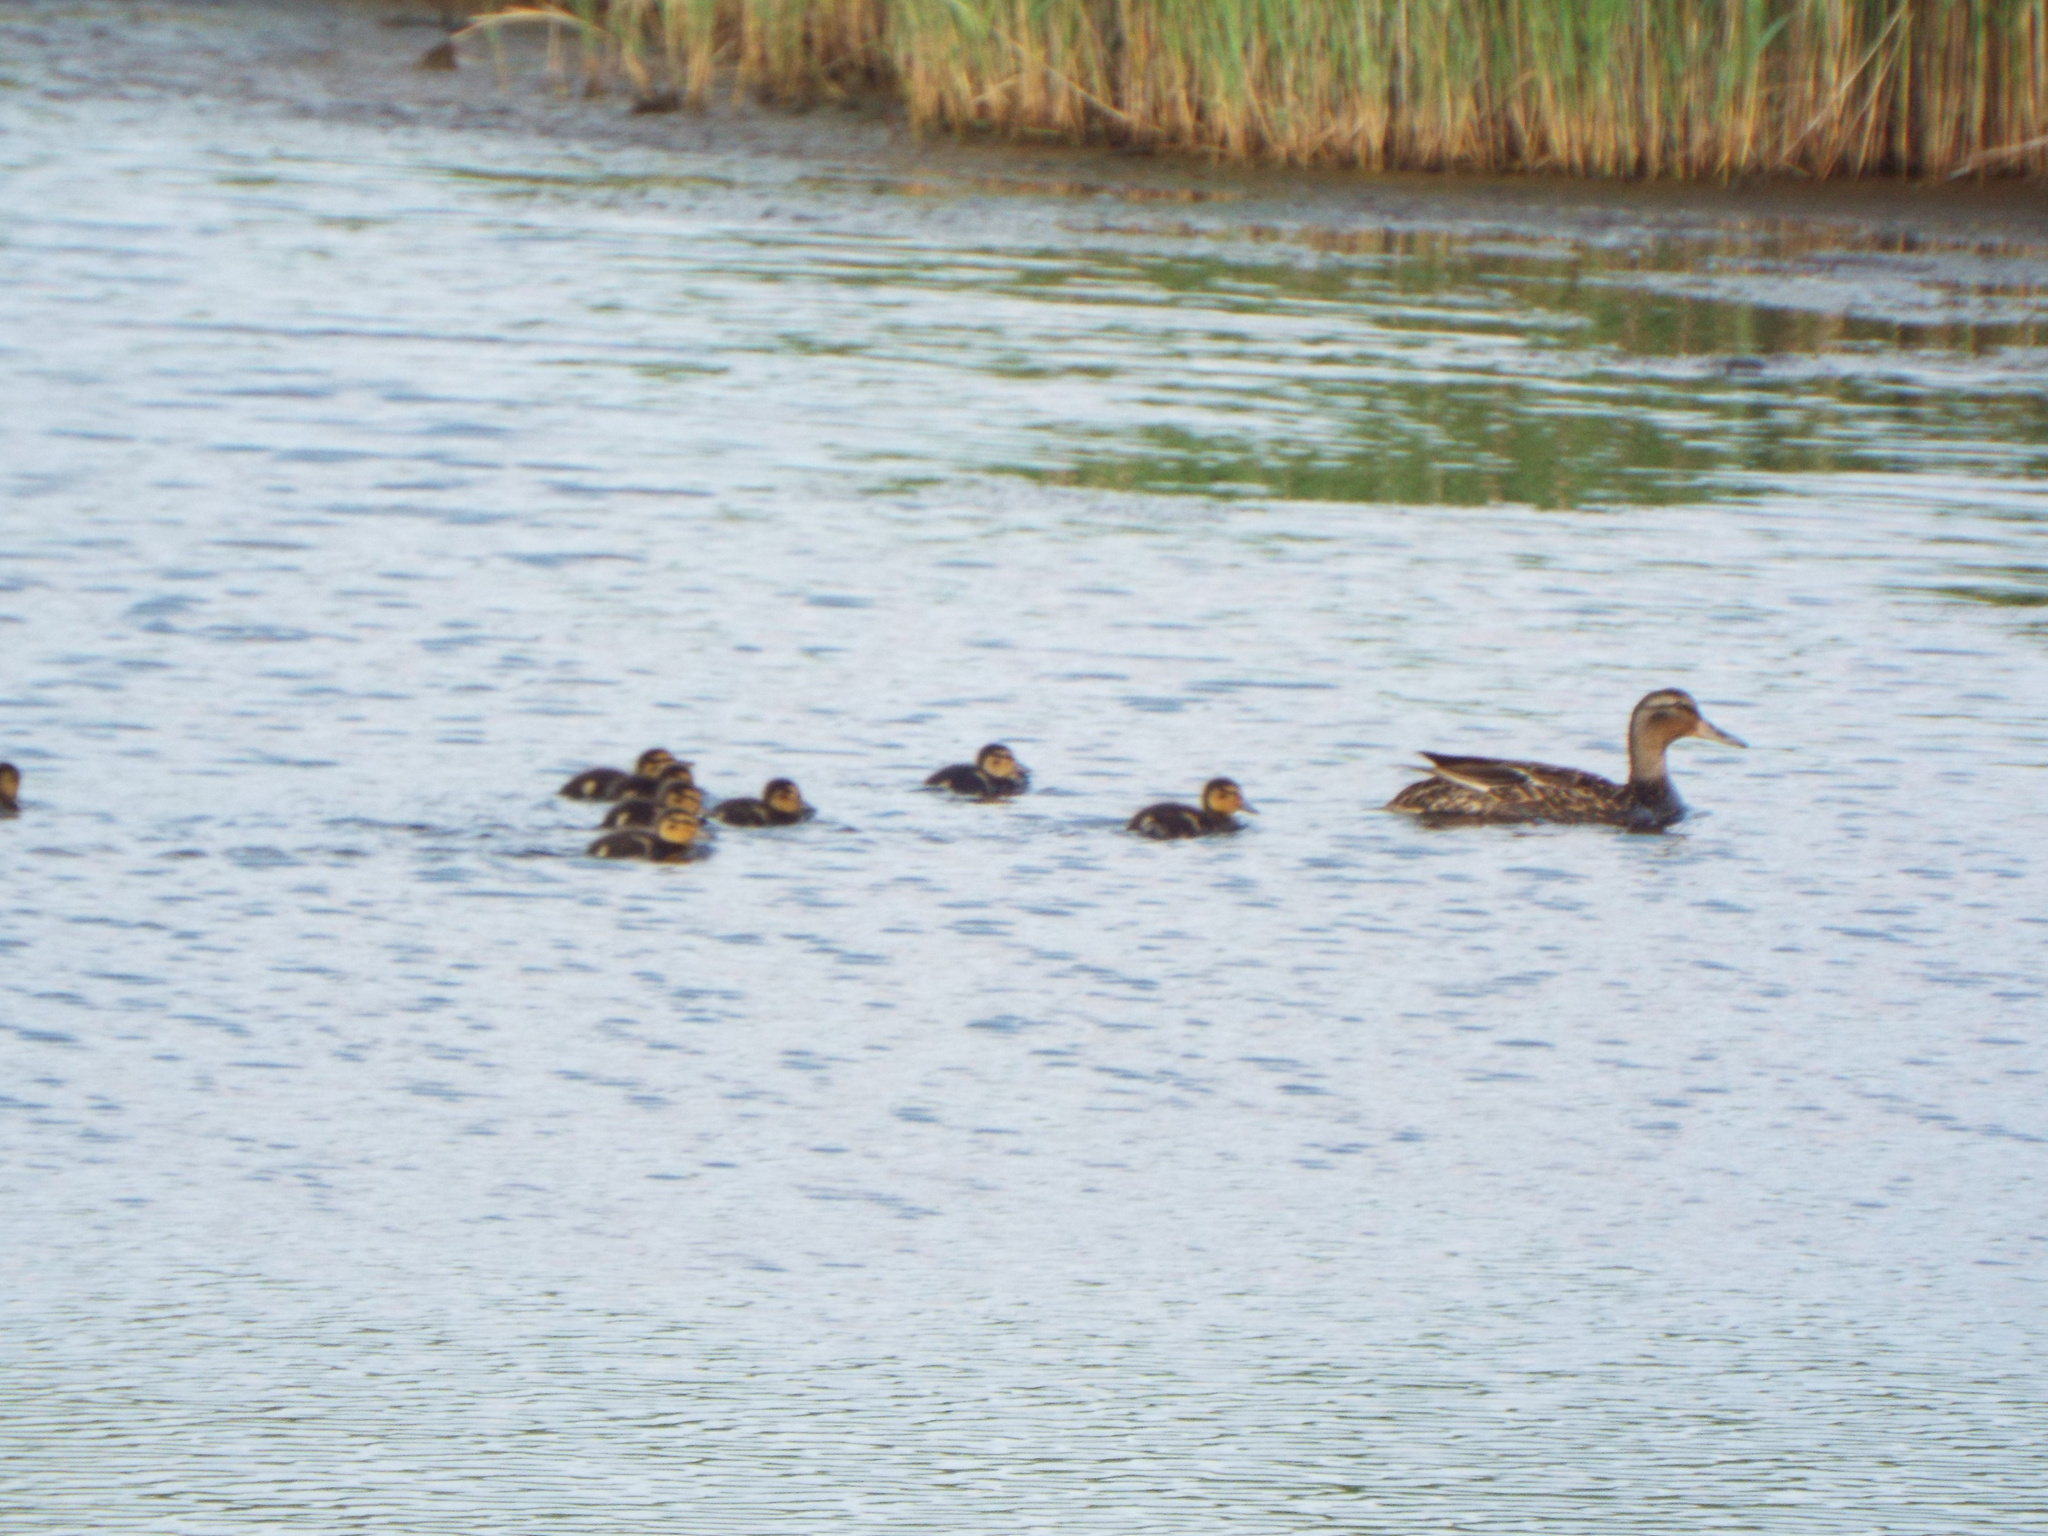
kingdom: Animalia
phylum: Chordata
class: Aves
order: Anseriformes
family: Anatidae
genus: Anas
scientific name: Anas platyrhynchos
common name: Mallard
